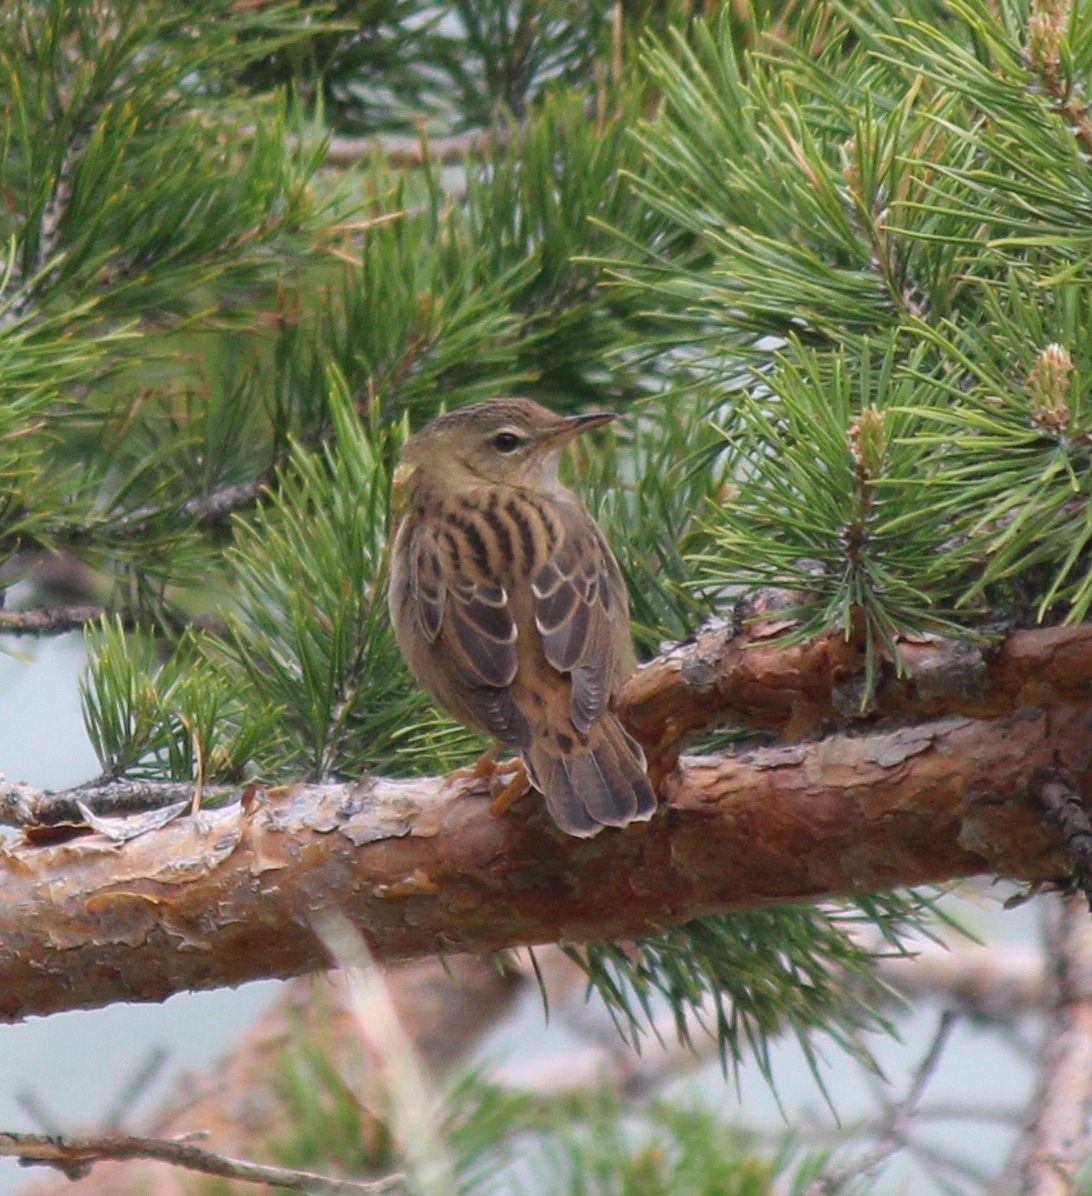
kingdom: Animalia
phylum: Chordata
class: Aves
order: Passeriformes
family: Locustellidae
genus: Locustella
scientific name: Locustella lanceolata
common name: Lanceolated warbler
